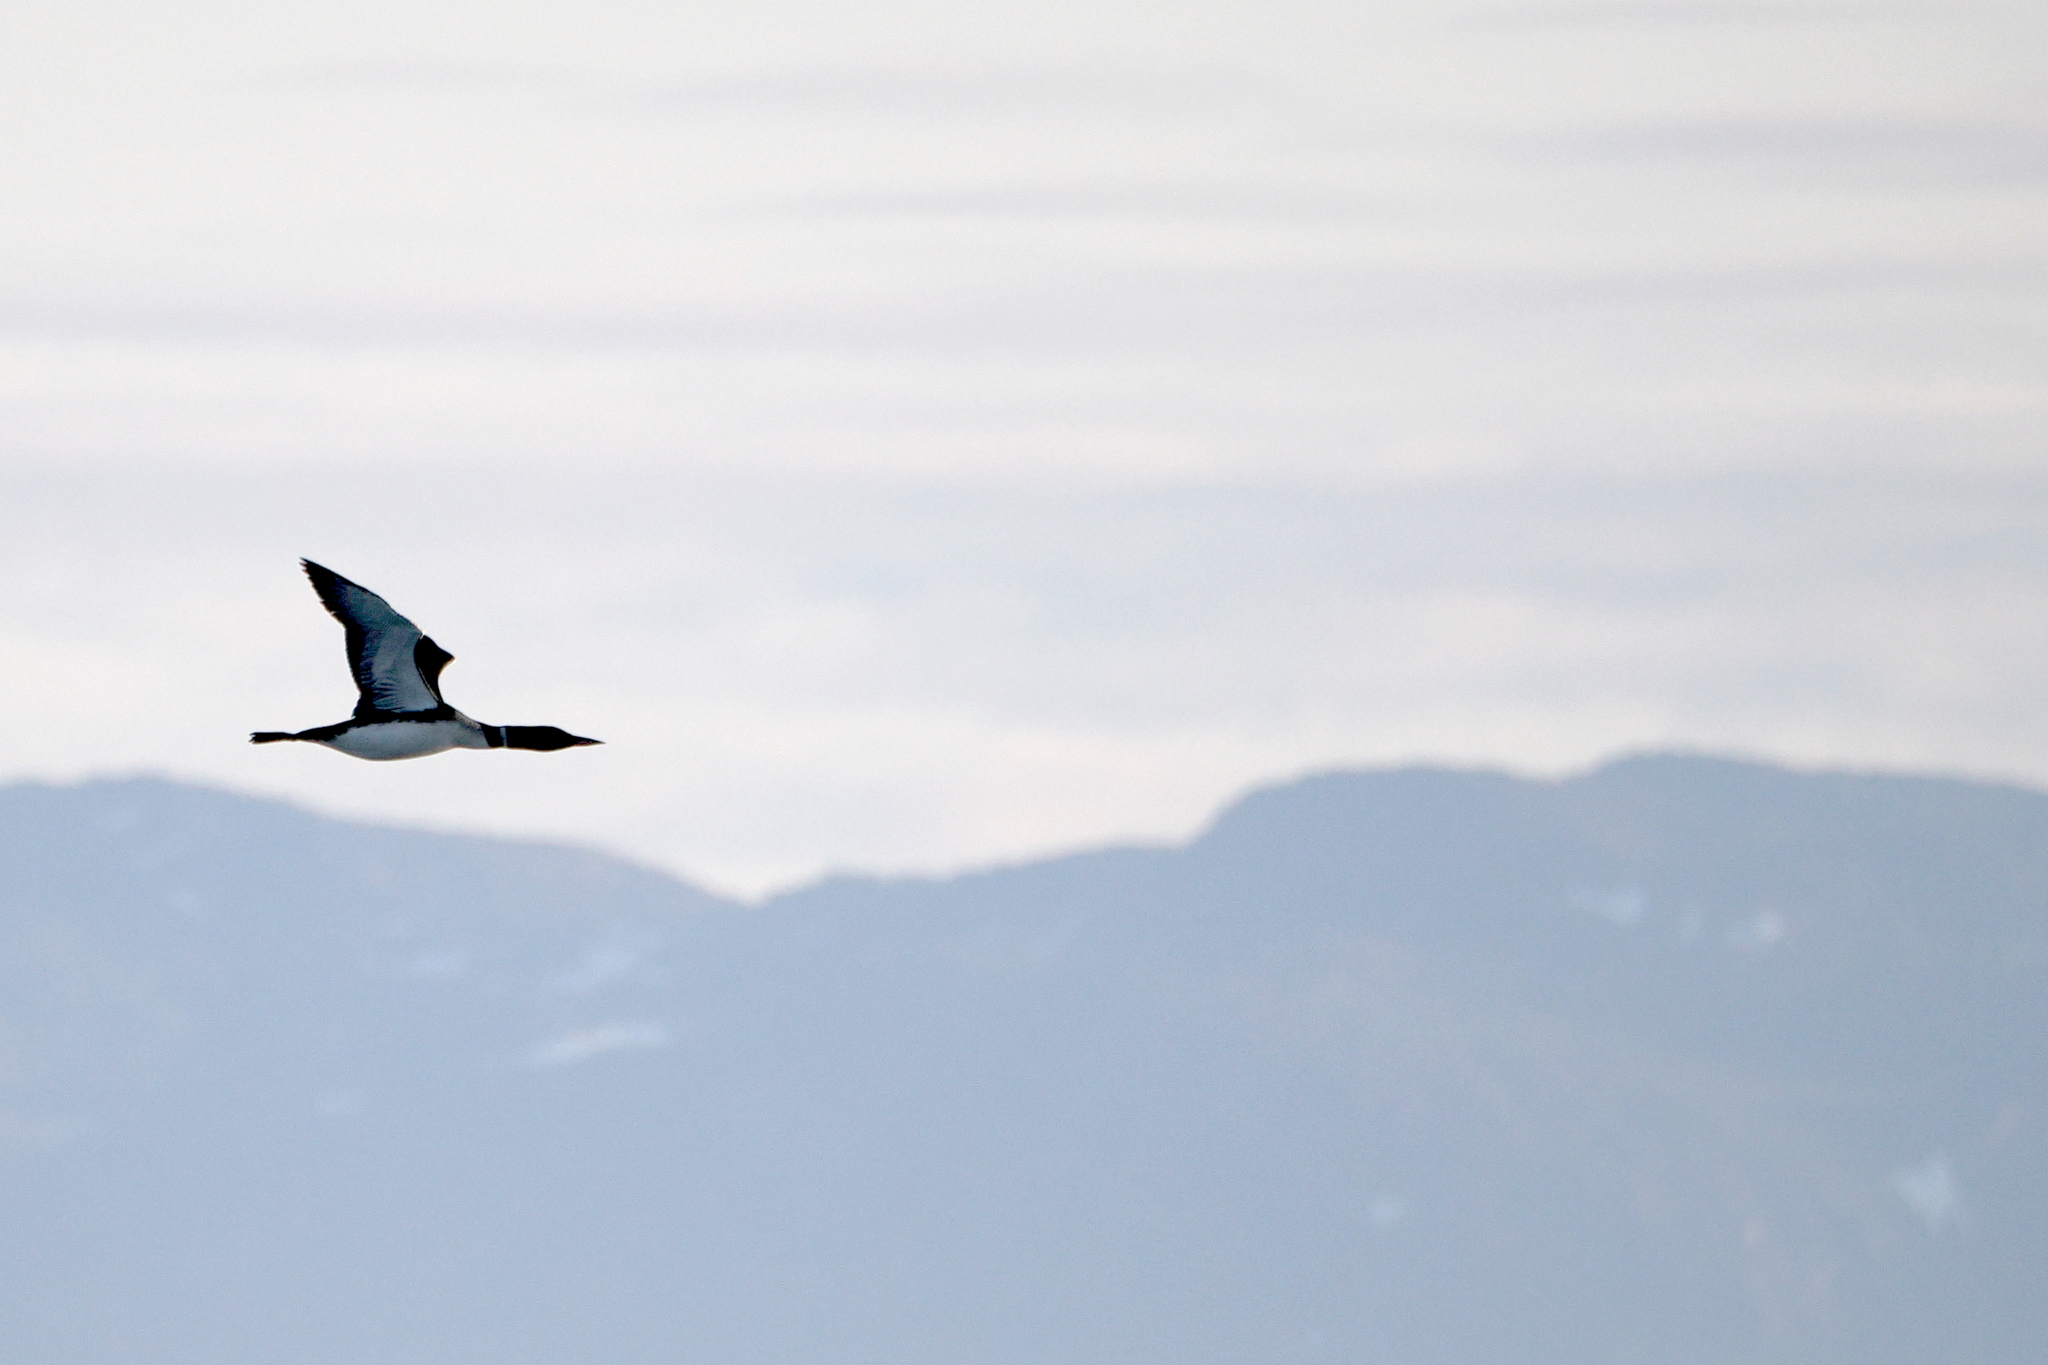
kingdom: Animalia
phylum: Chordata
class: Aves
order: Gaviiformes
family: Gaviidae
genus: Gavia
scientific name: Gavia immer
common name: Common loon
